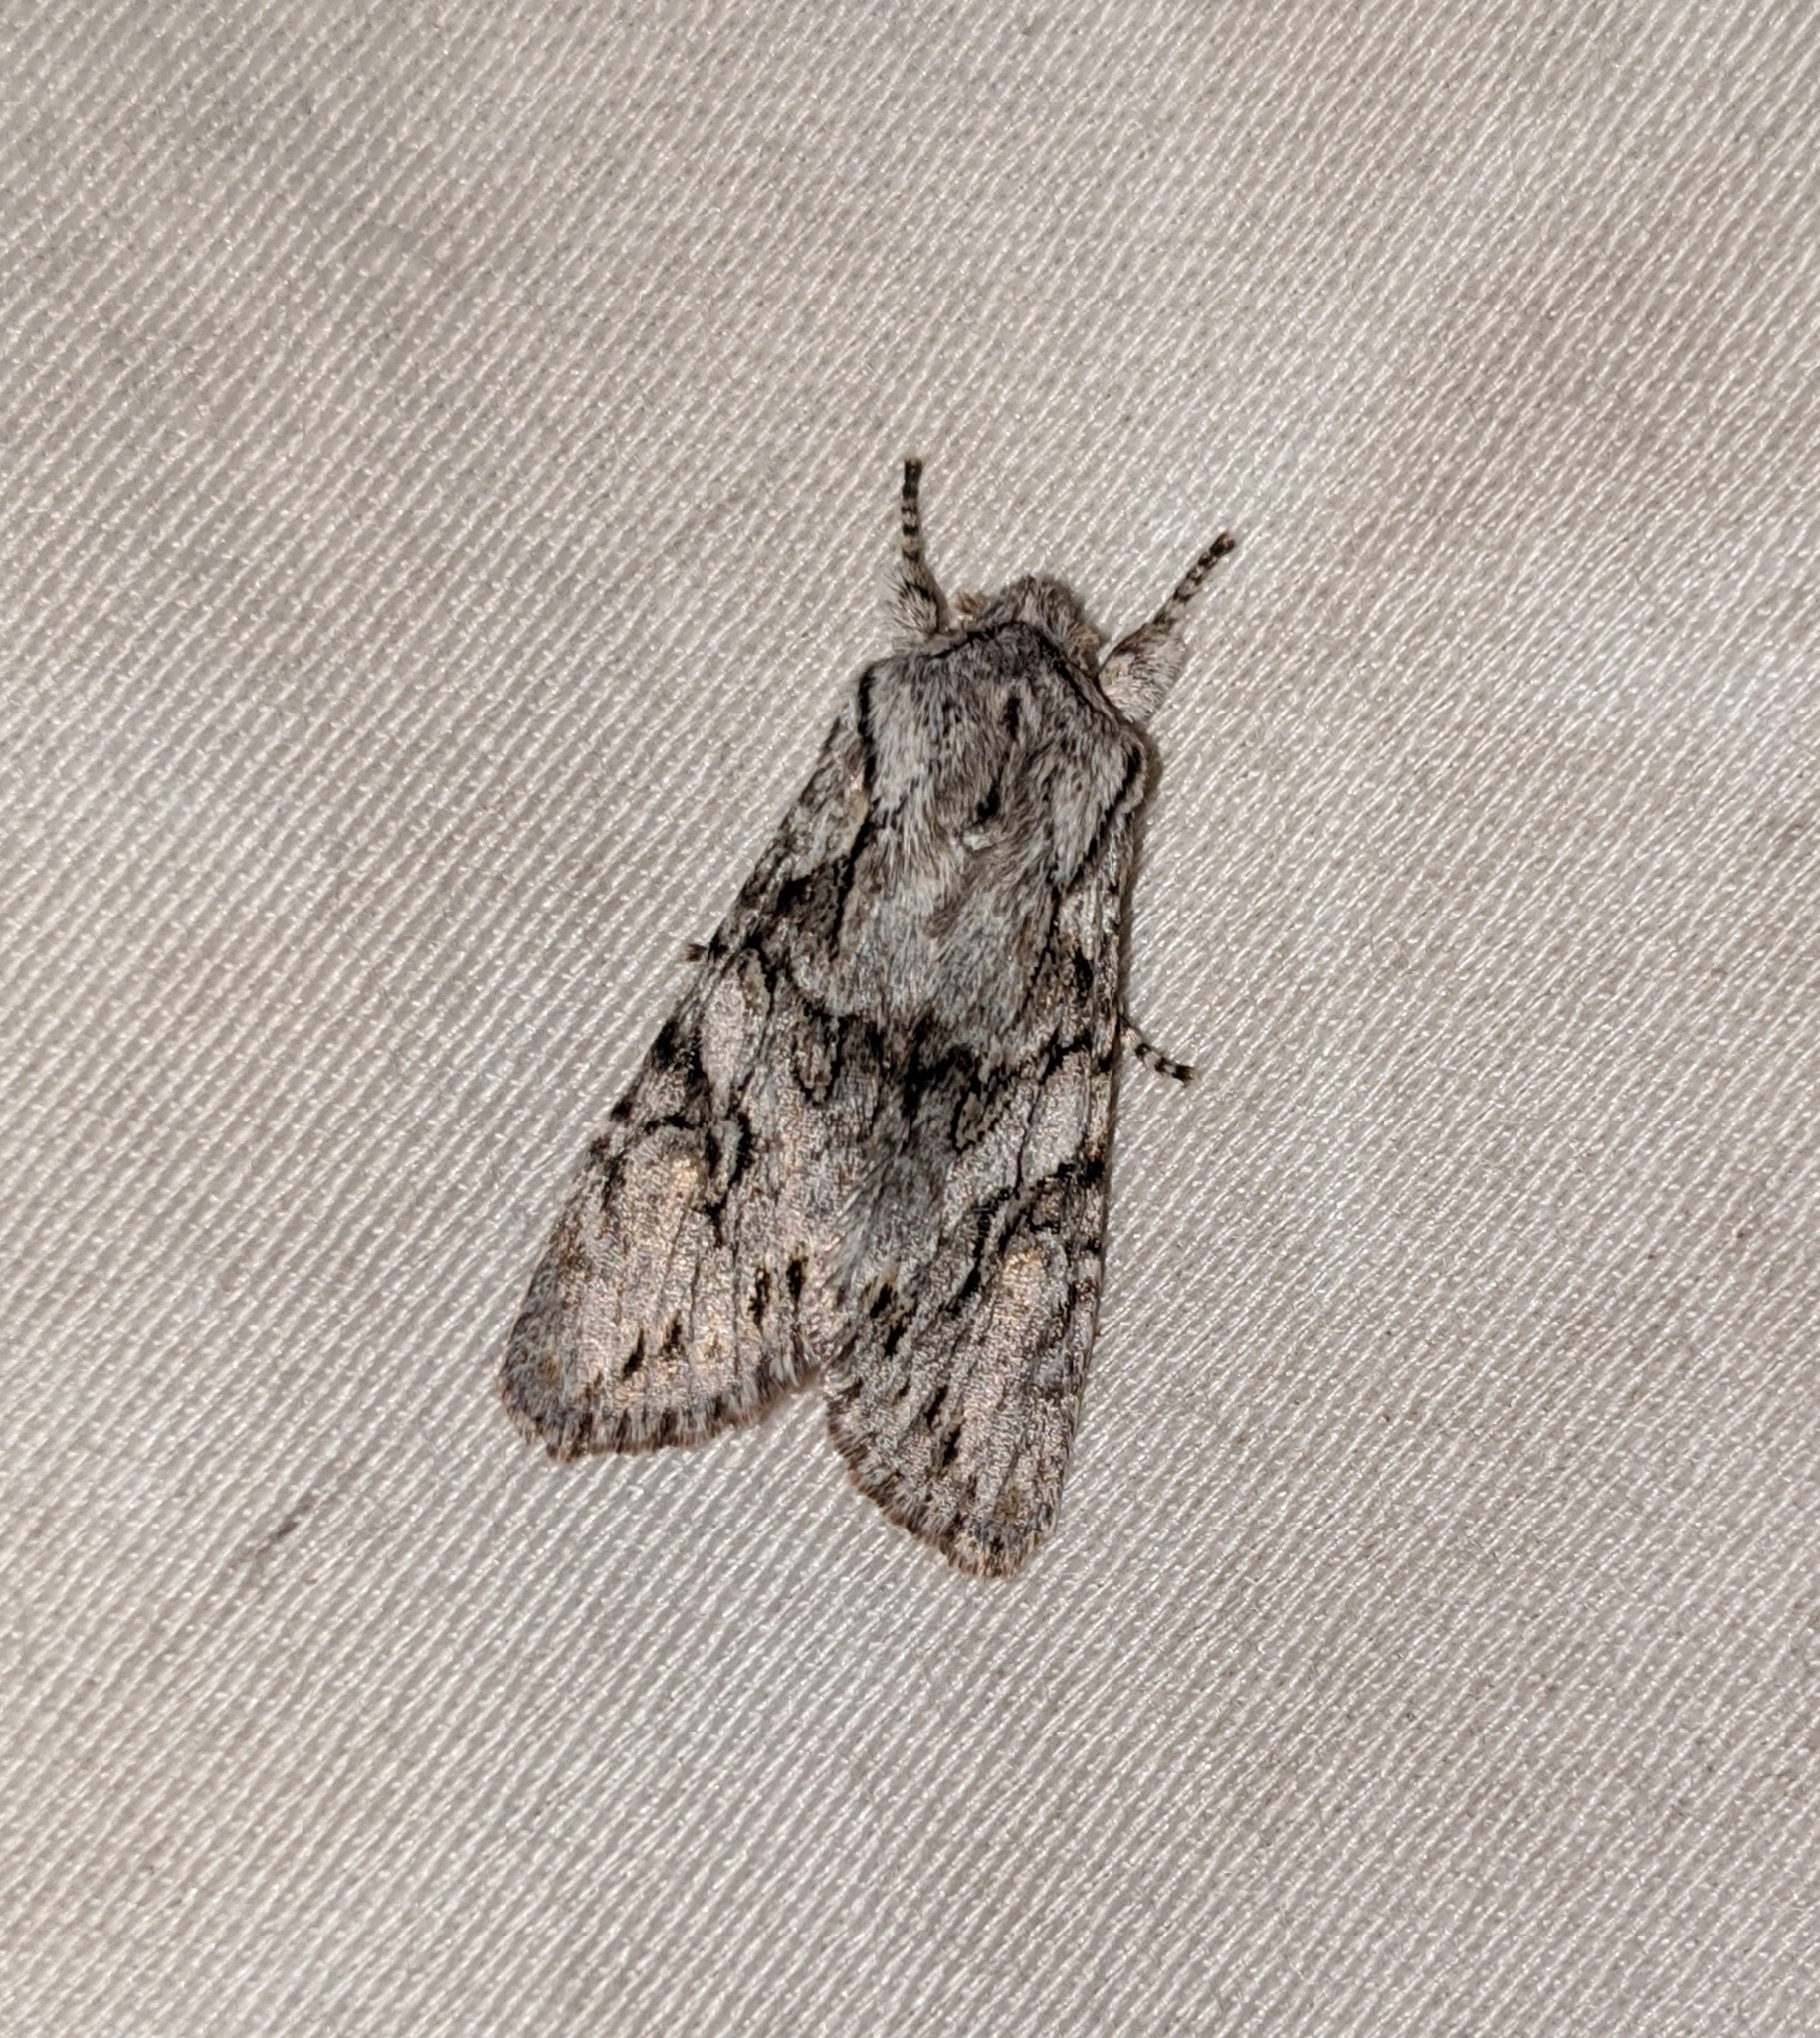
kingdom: Animalia
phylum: Arthropoda
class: Insecta
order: Lepidoptera
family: Noctuidae
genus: Egira
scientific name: Egira simplex
